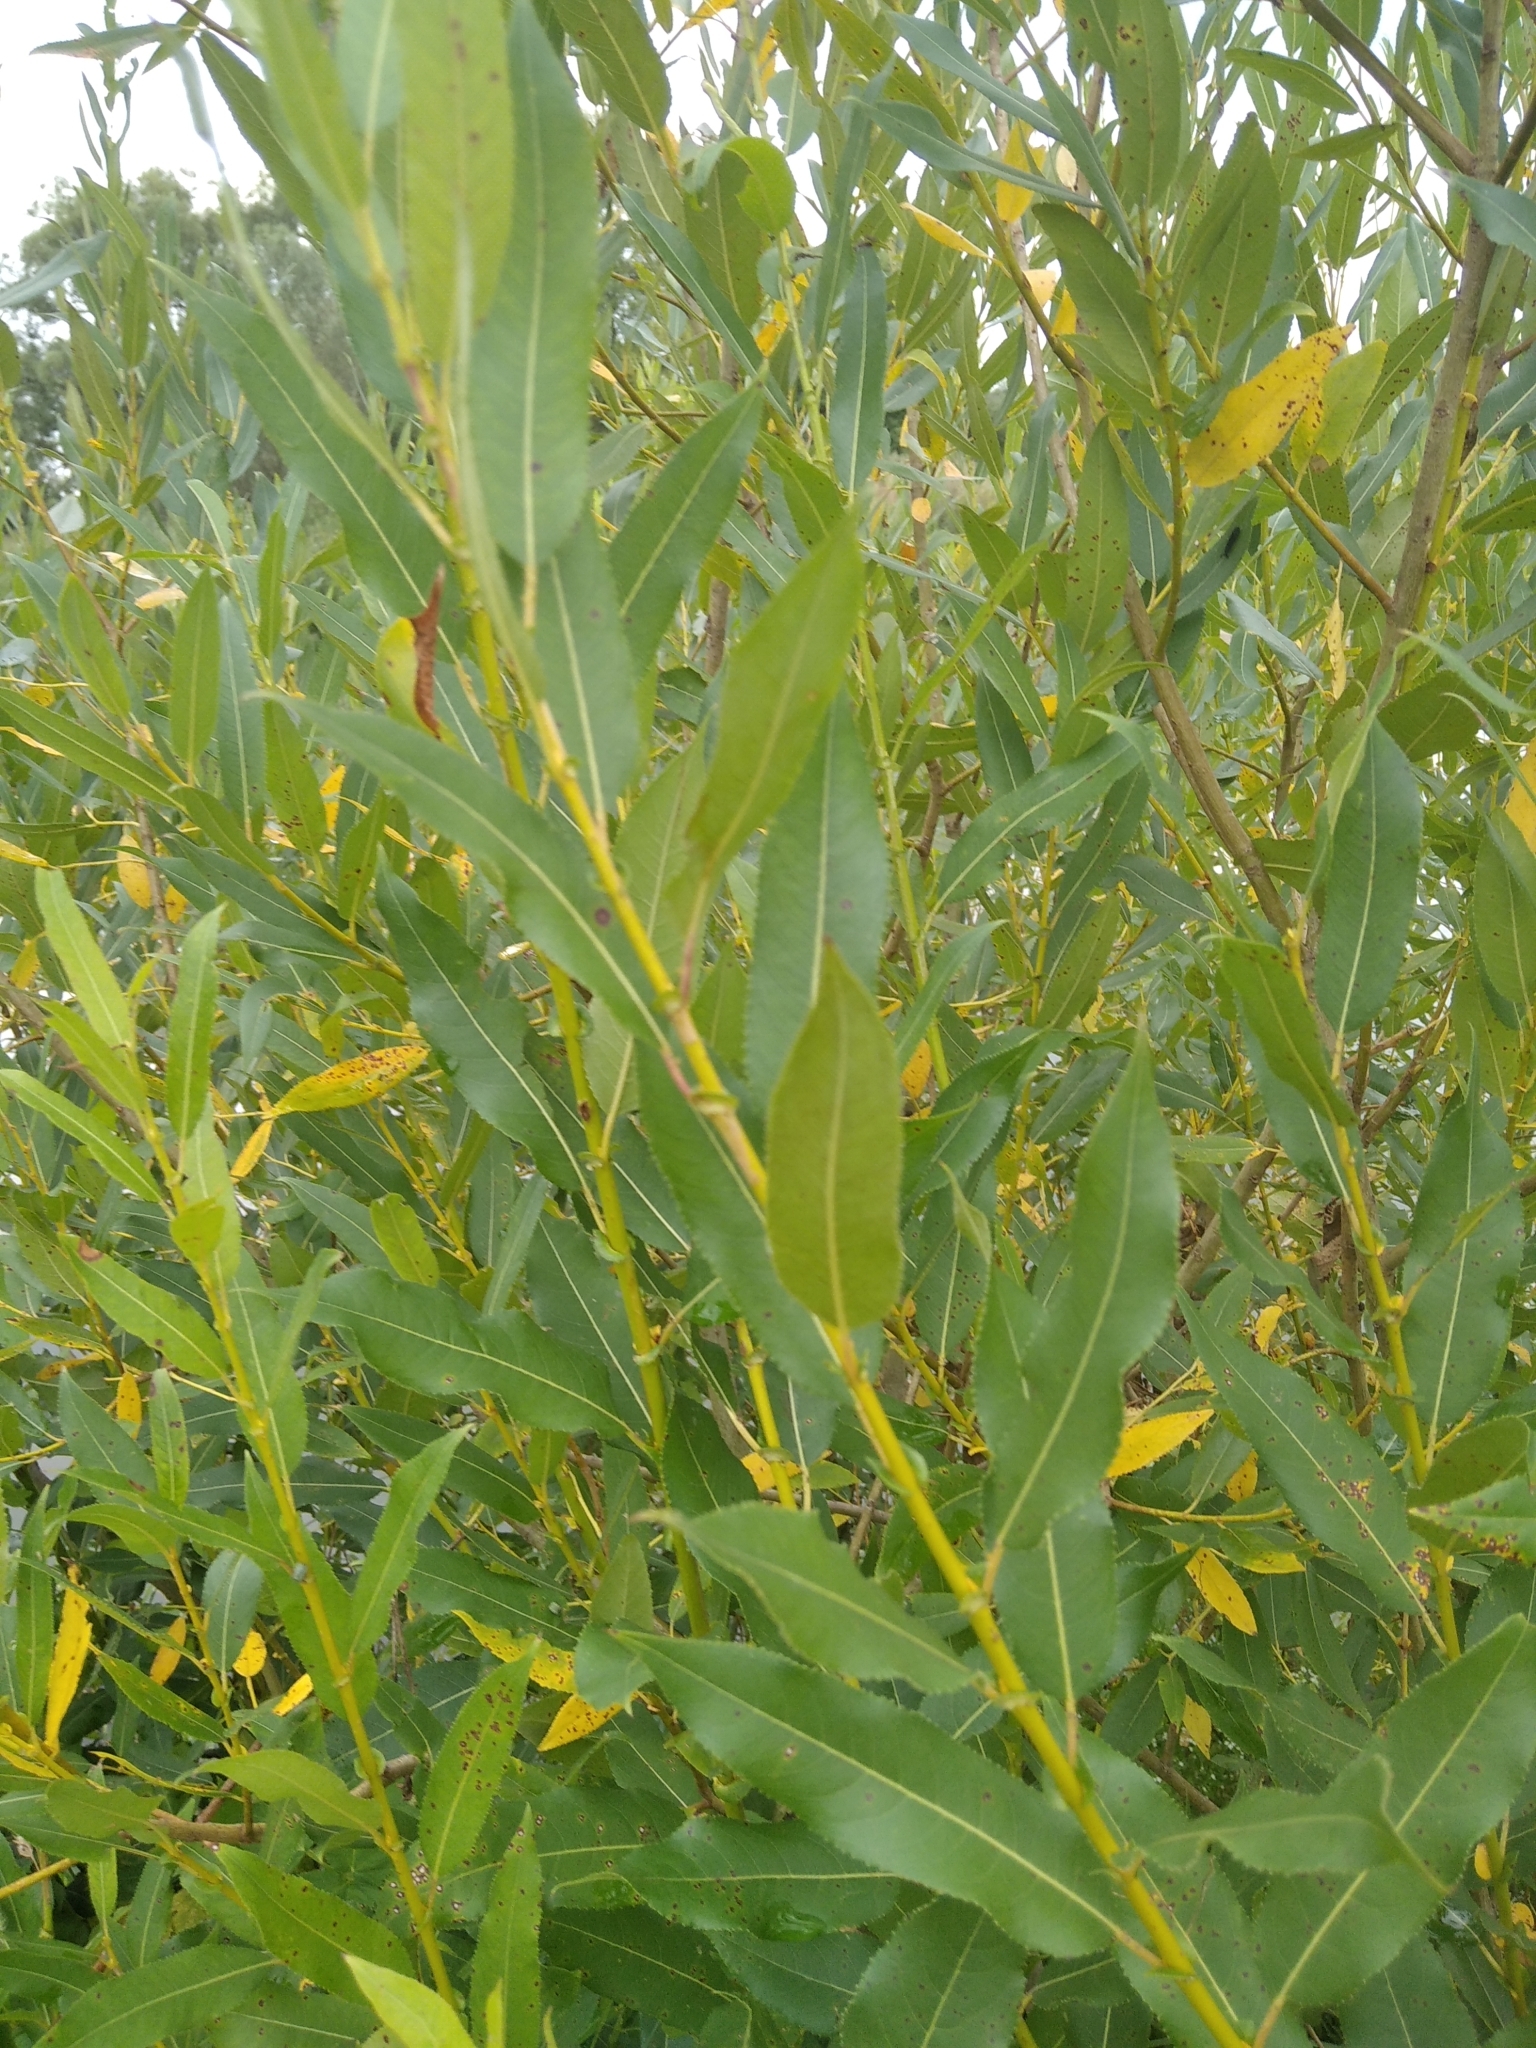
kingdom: Plantae
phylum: Tracheophyta
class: Magnoliopsida
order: Malpighiales
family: Salicaceae
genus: Salix
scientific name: Salix triandra
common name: Almond willow
